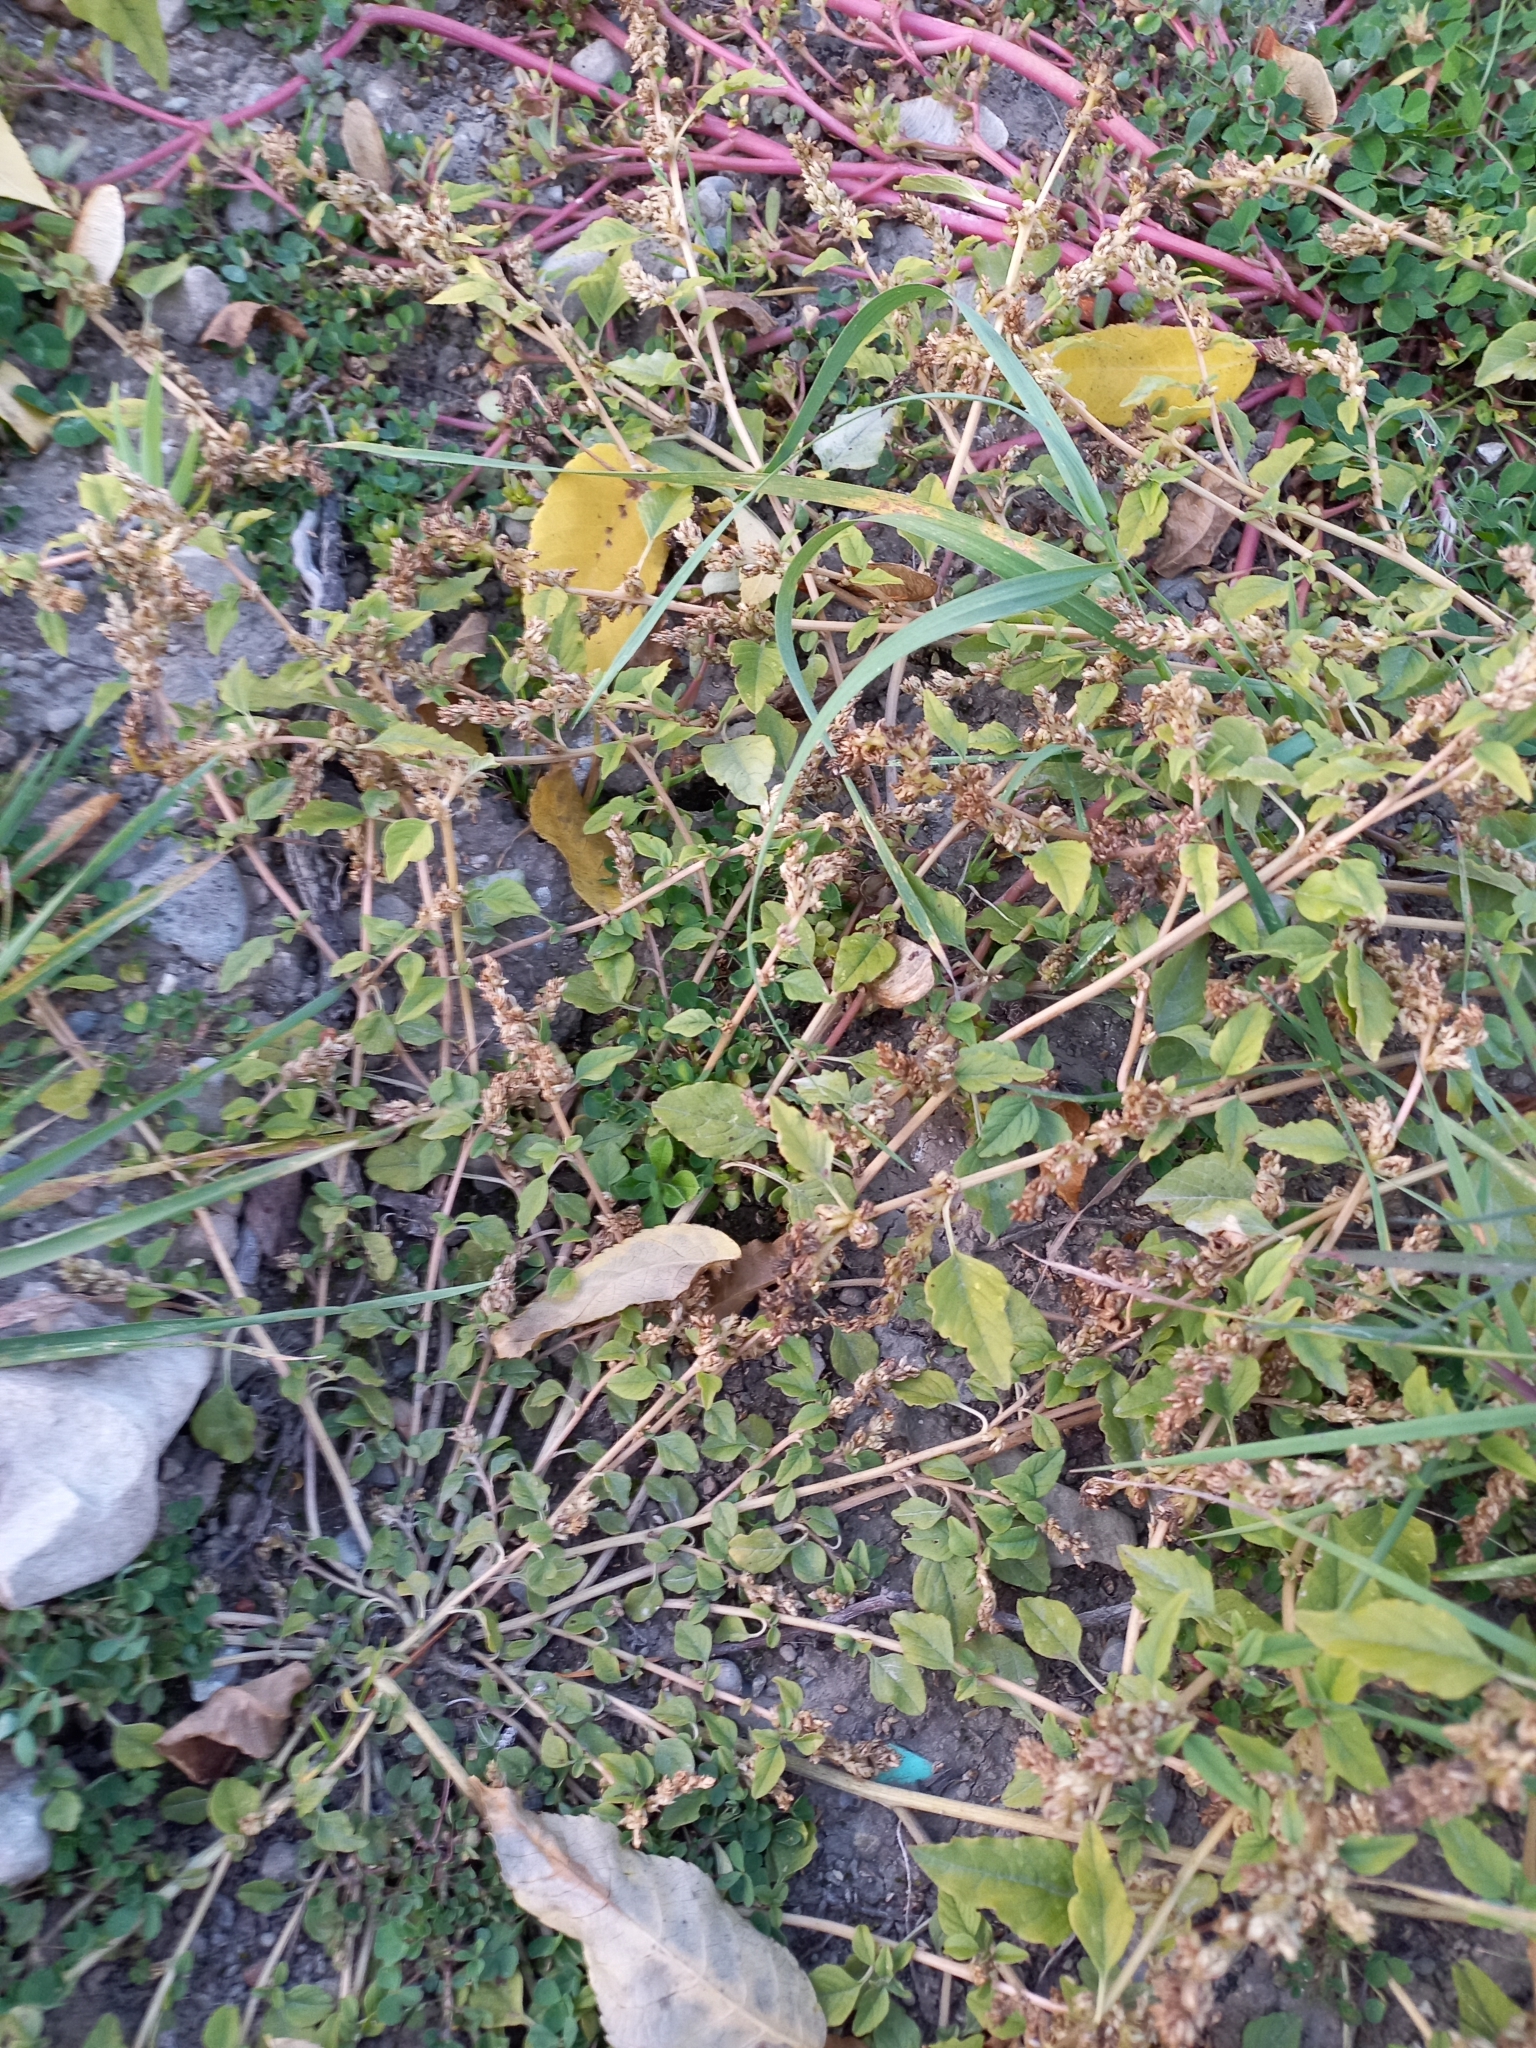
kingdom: Plantae
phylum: Tracheophyta
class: Magnoliopsida
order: Caryophyllales
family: Amaranthaceae
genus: Amaranthus
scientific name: Amaranthus deflexus
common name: Perennial pigweed
